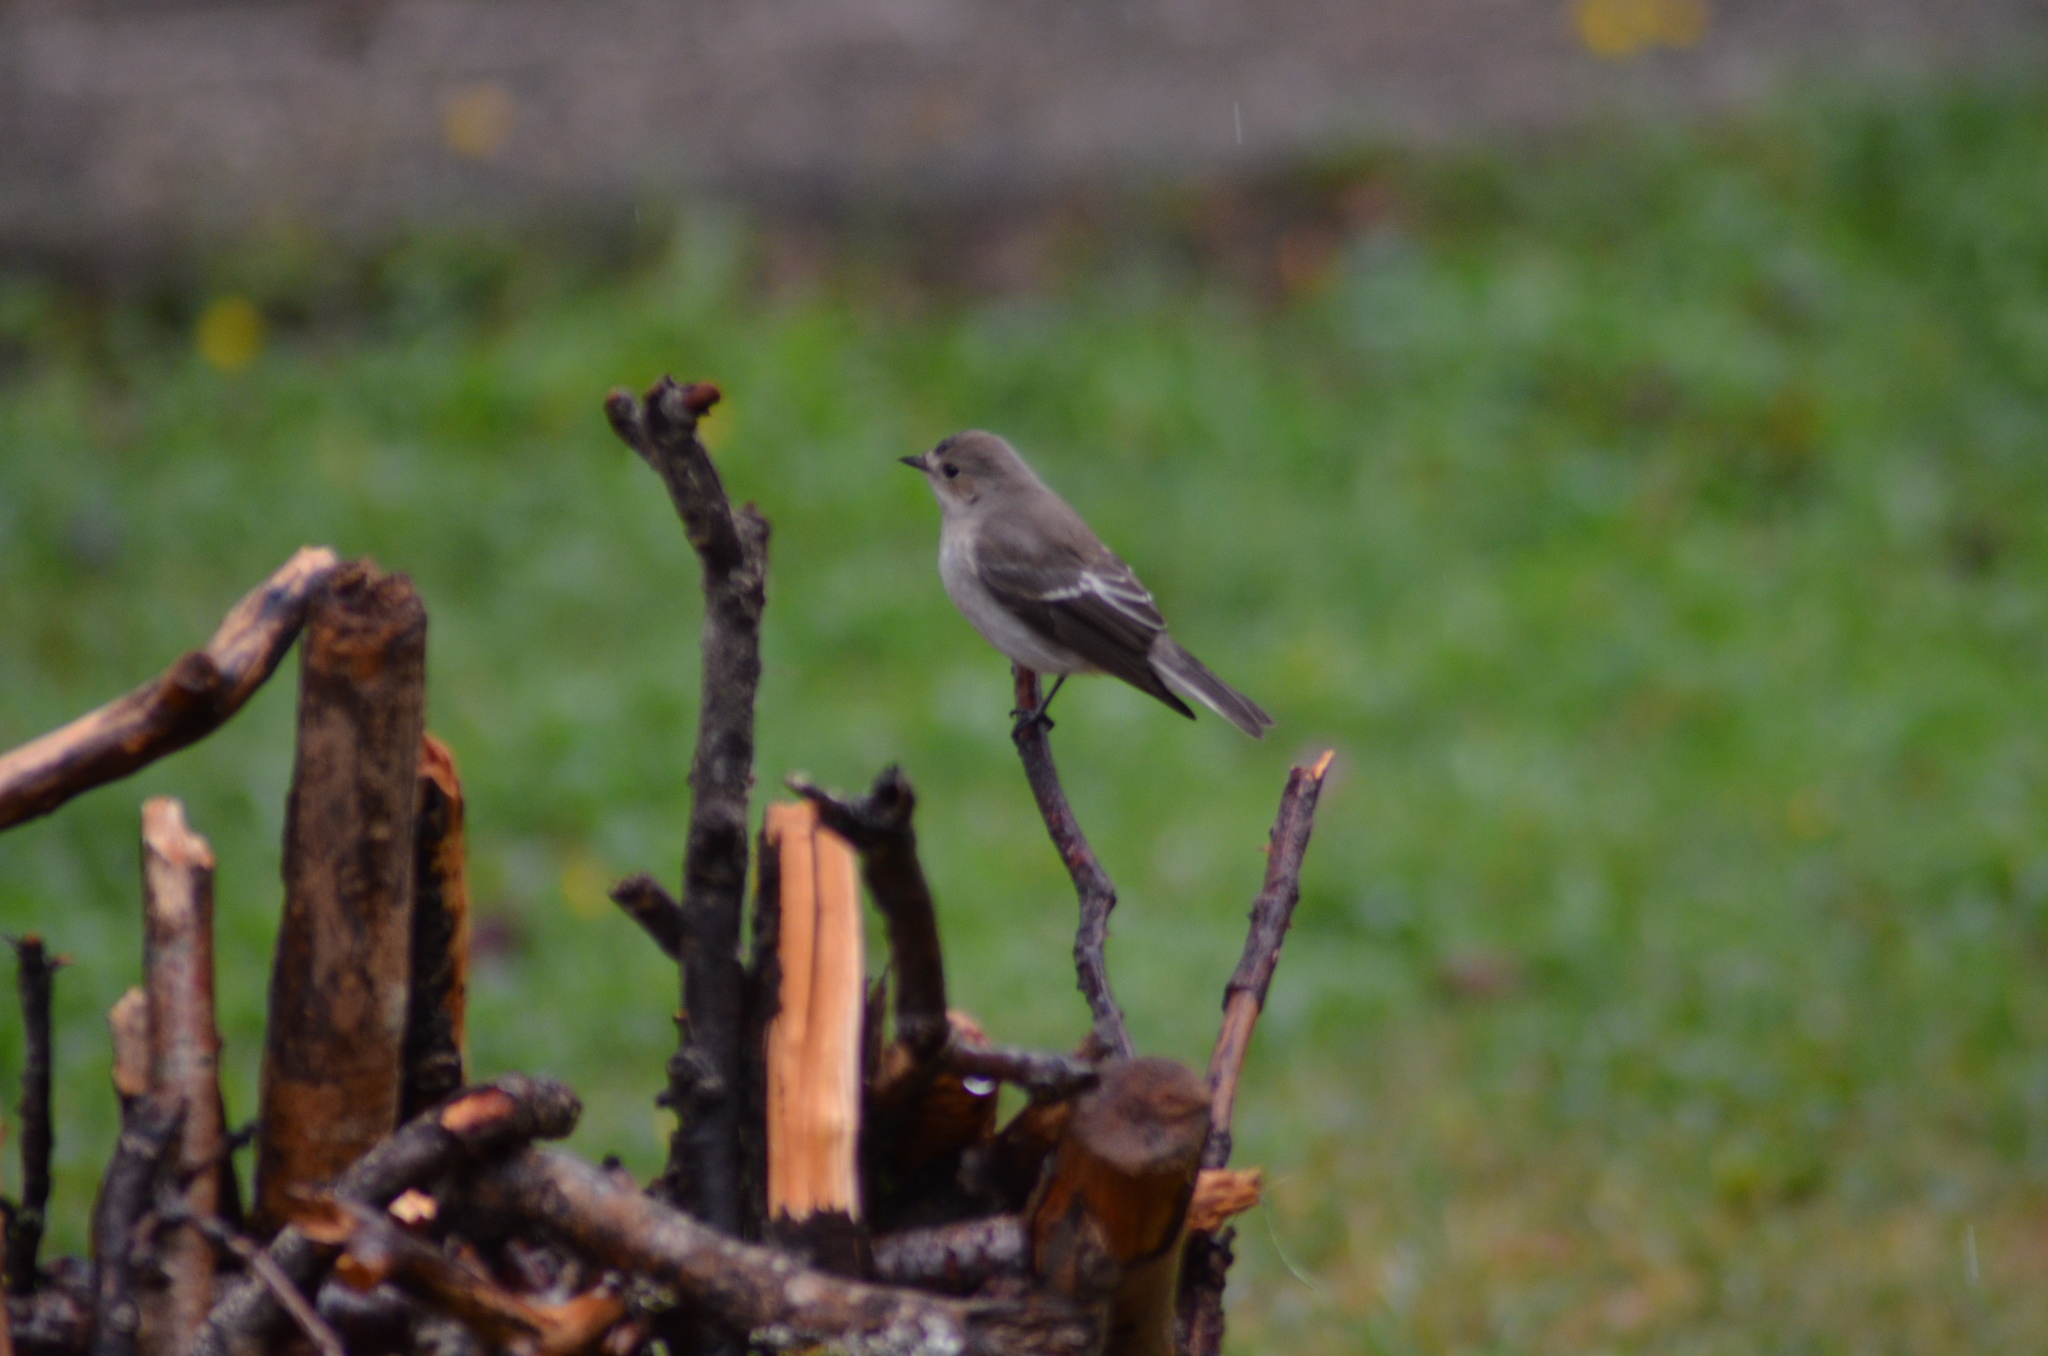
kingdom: Animalia
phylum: Chordata
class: Aves
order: Passeriformes
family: Muscicapidae
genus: Ficedula
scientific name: Ficedula hypoleuca
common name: European pied flycatcher
